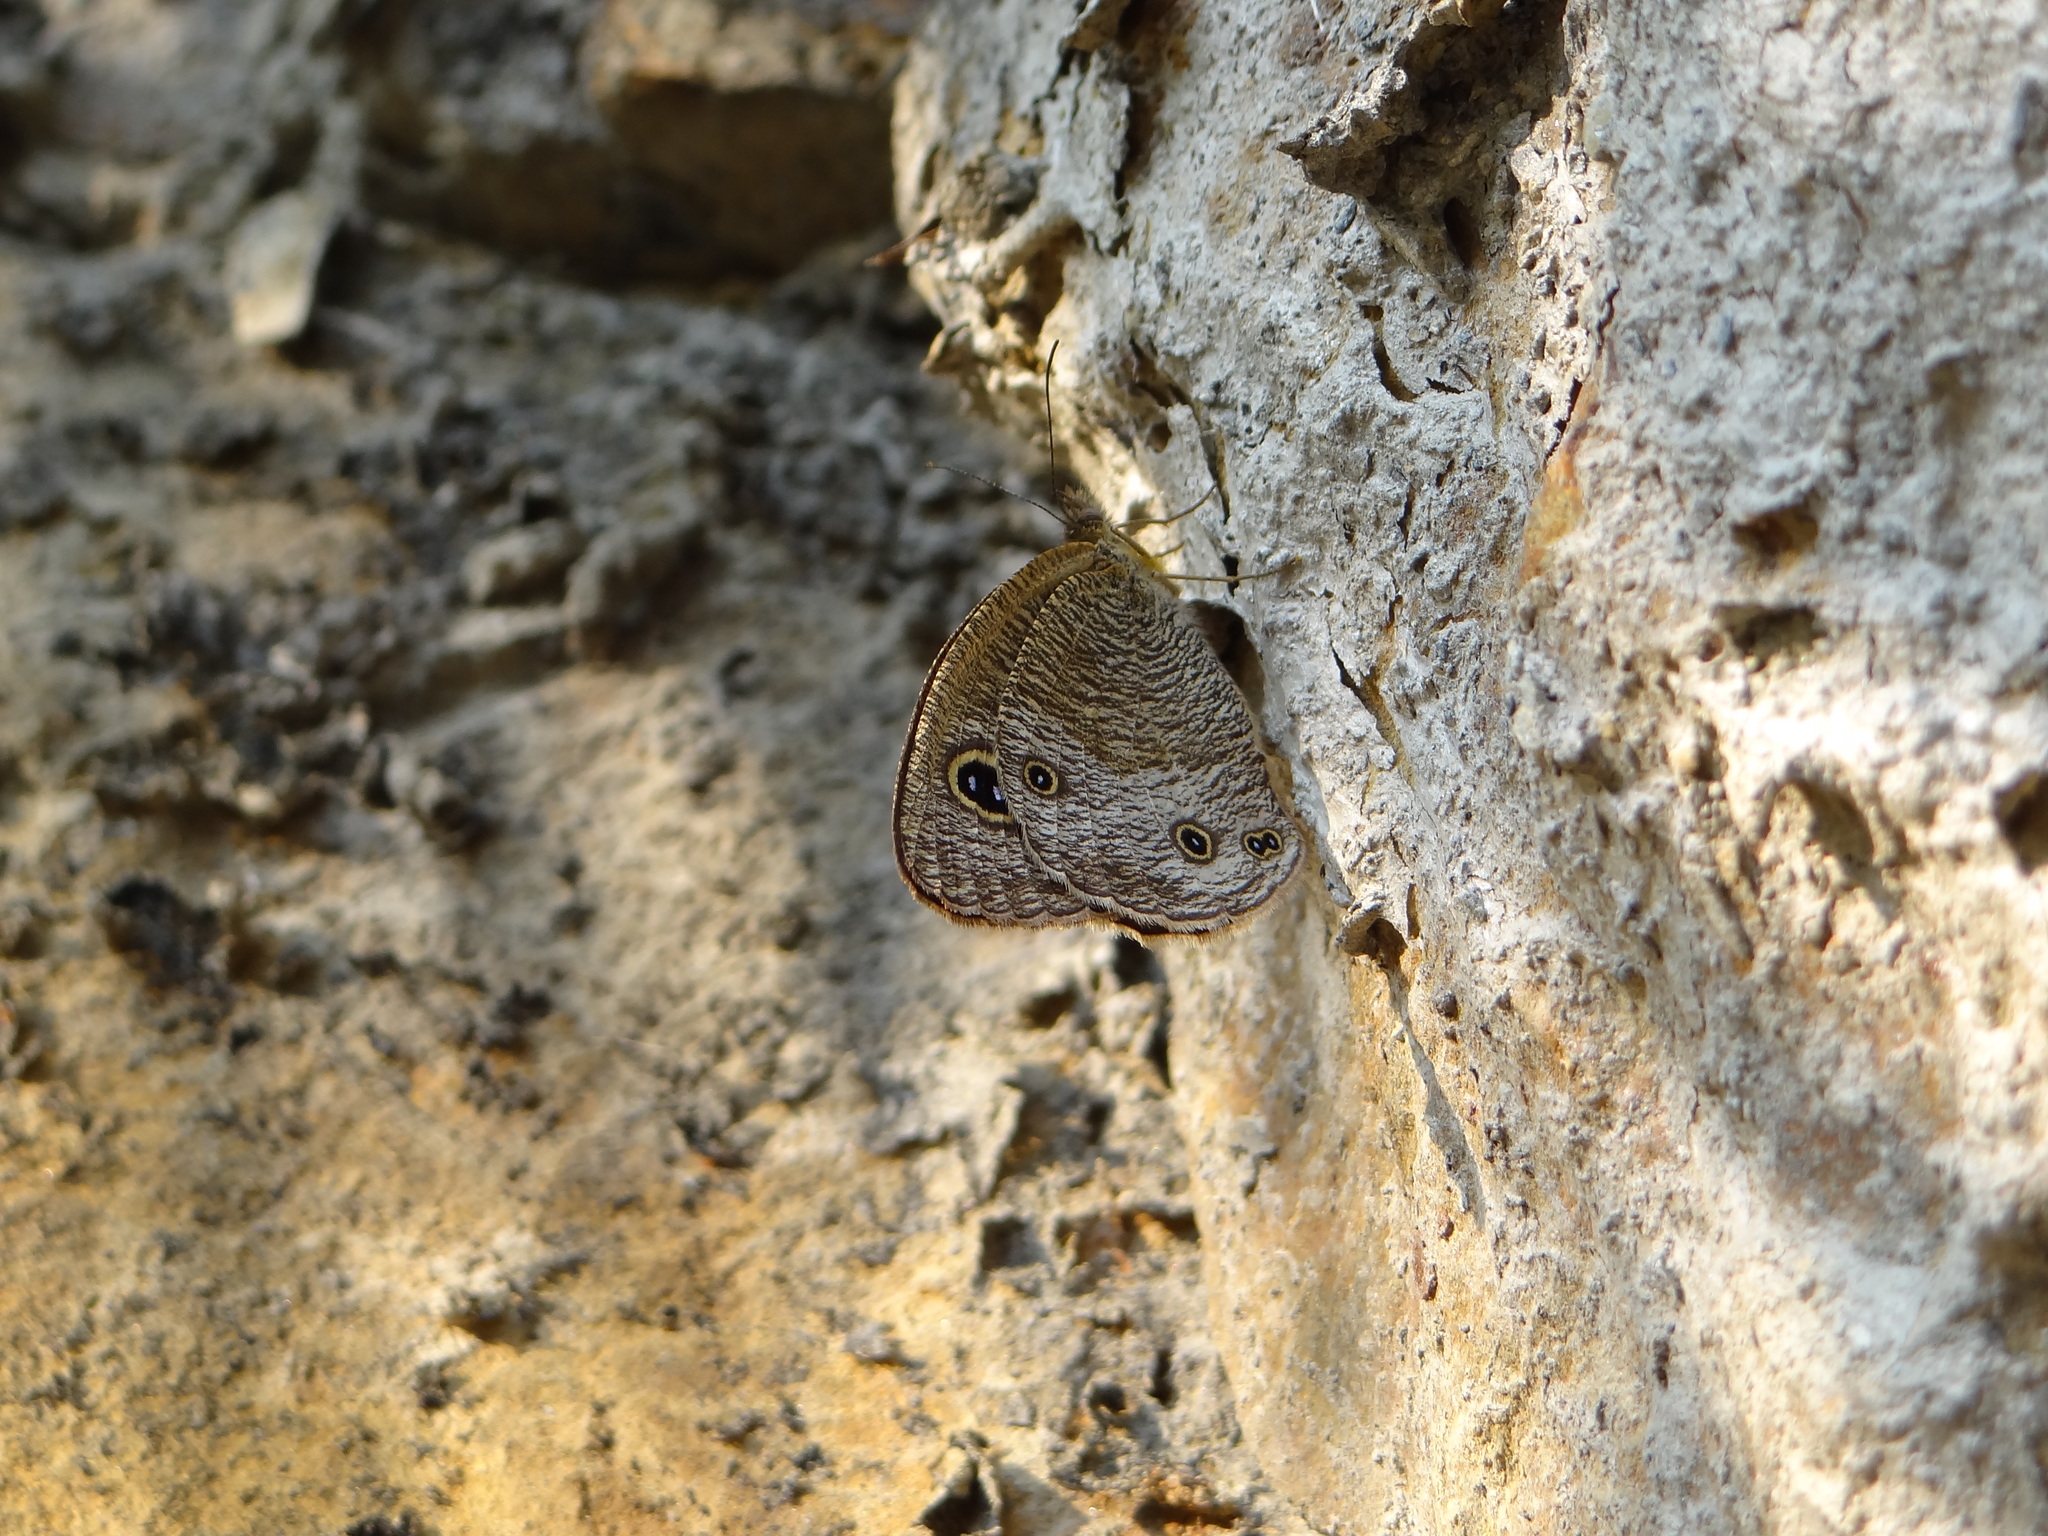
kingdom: Animalia
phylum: Arthropoda
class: Insecta
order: Lepidoptera
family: Nymphalidae
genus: Ypthima
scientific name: Ypthima esakii
